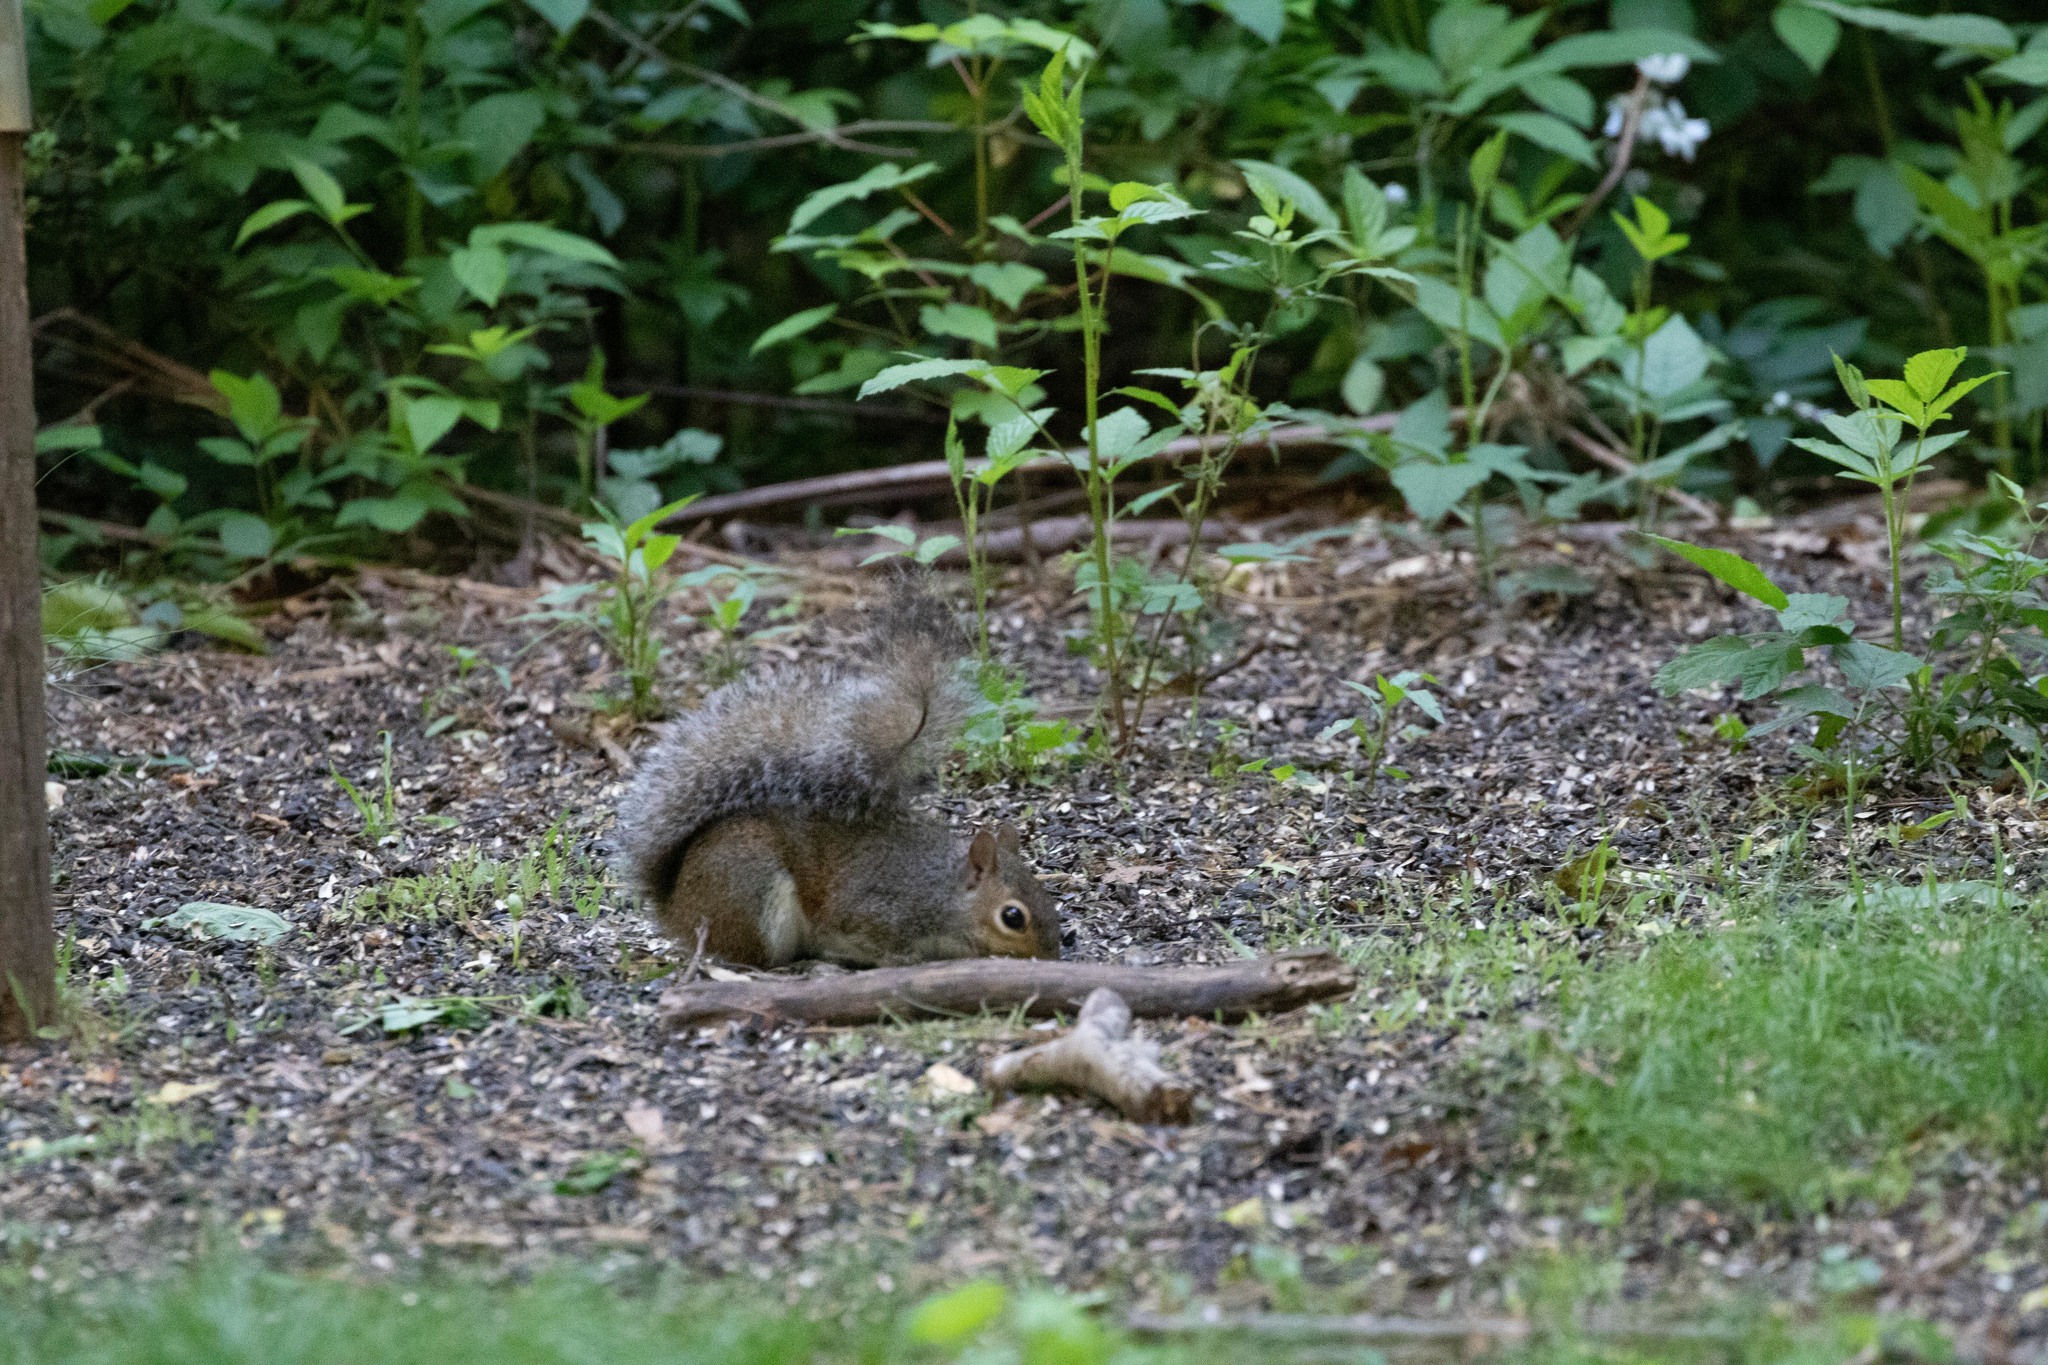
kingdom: Animalia
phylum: Chordata
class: Mammalia
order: Rodentia
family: Sciuridae
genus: Sciurus
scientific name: Sciurus carolinensis
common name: Eastern gray squirrel
